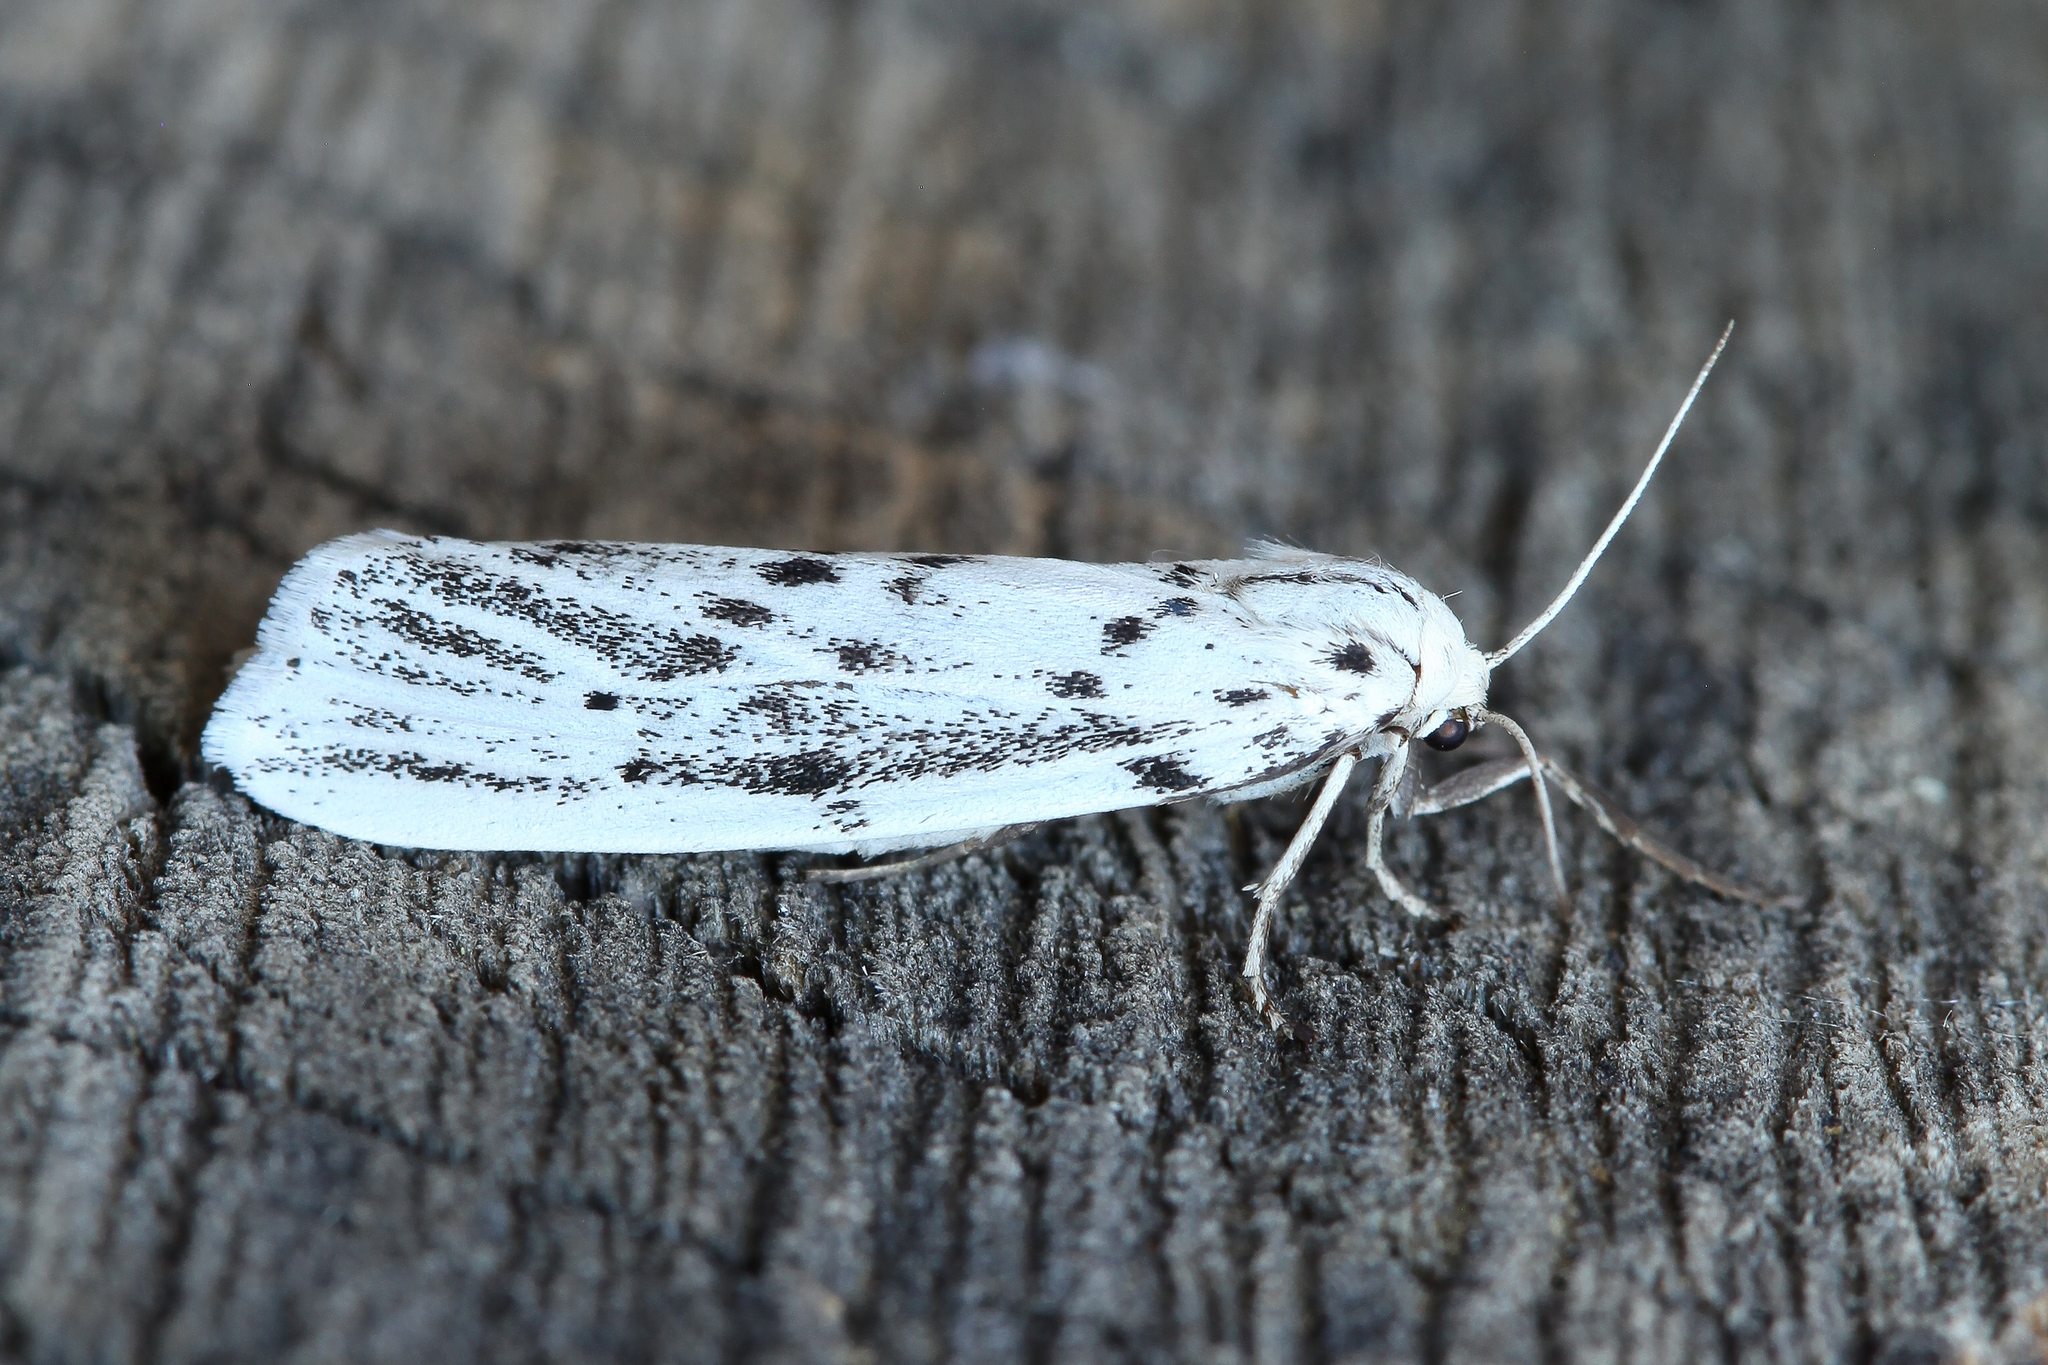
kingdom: Animalia
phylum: Arthropoda
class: Insecta
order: Lepidoptera
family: Erebidae
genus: Coscinia
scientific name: Coscinia cribraria
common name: Speckled footman
